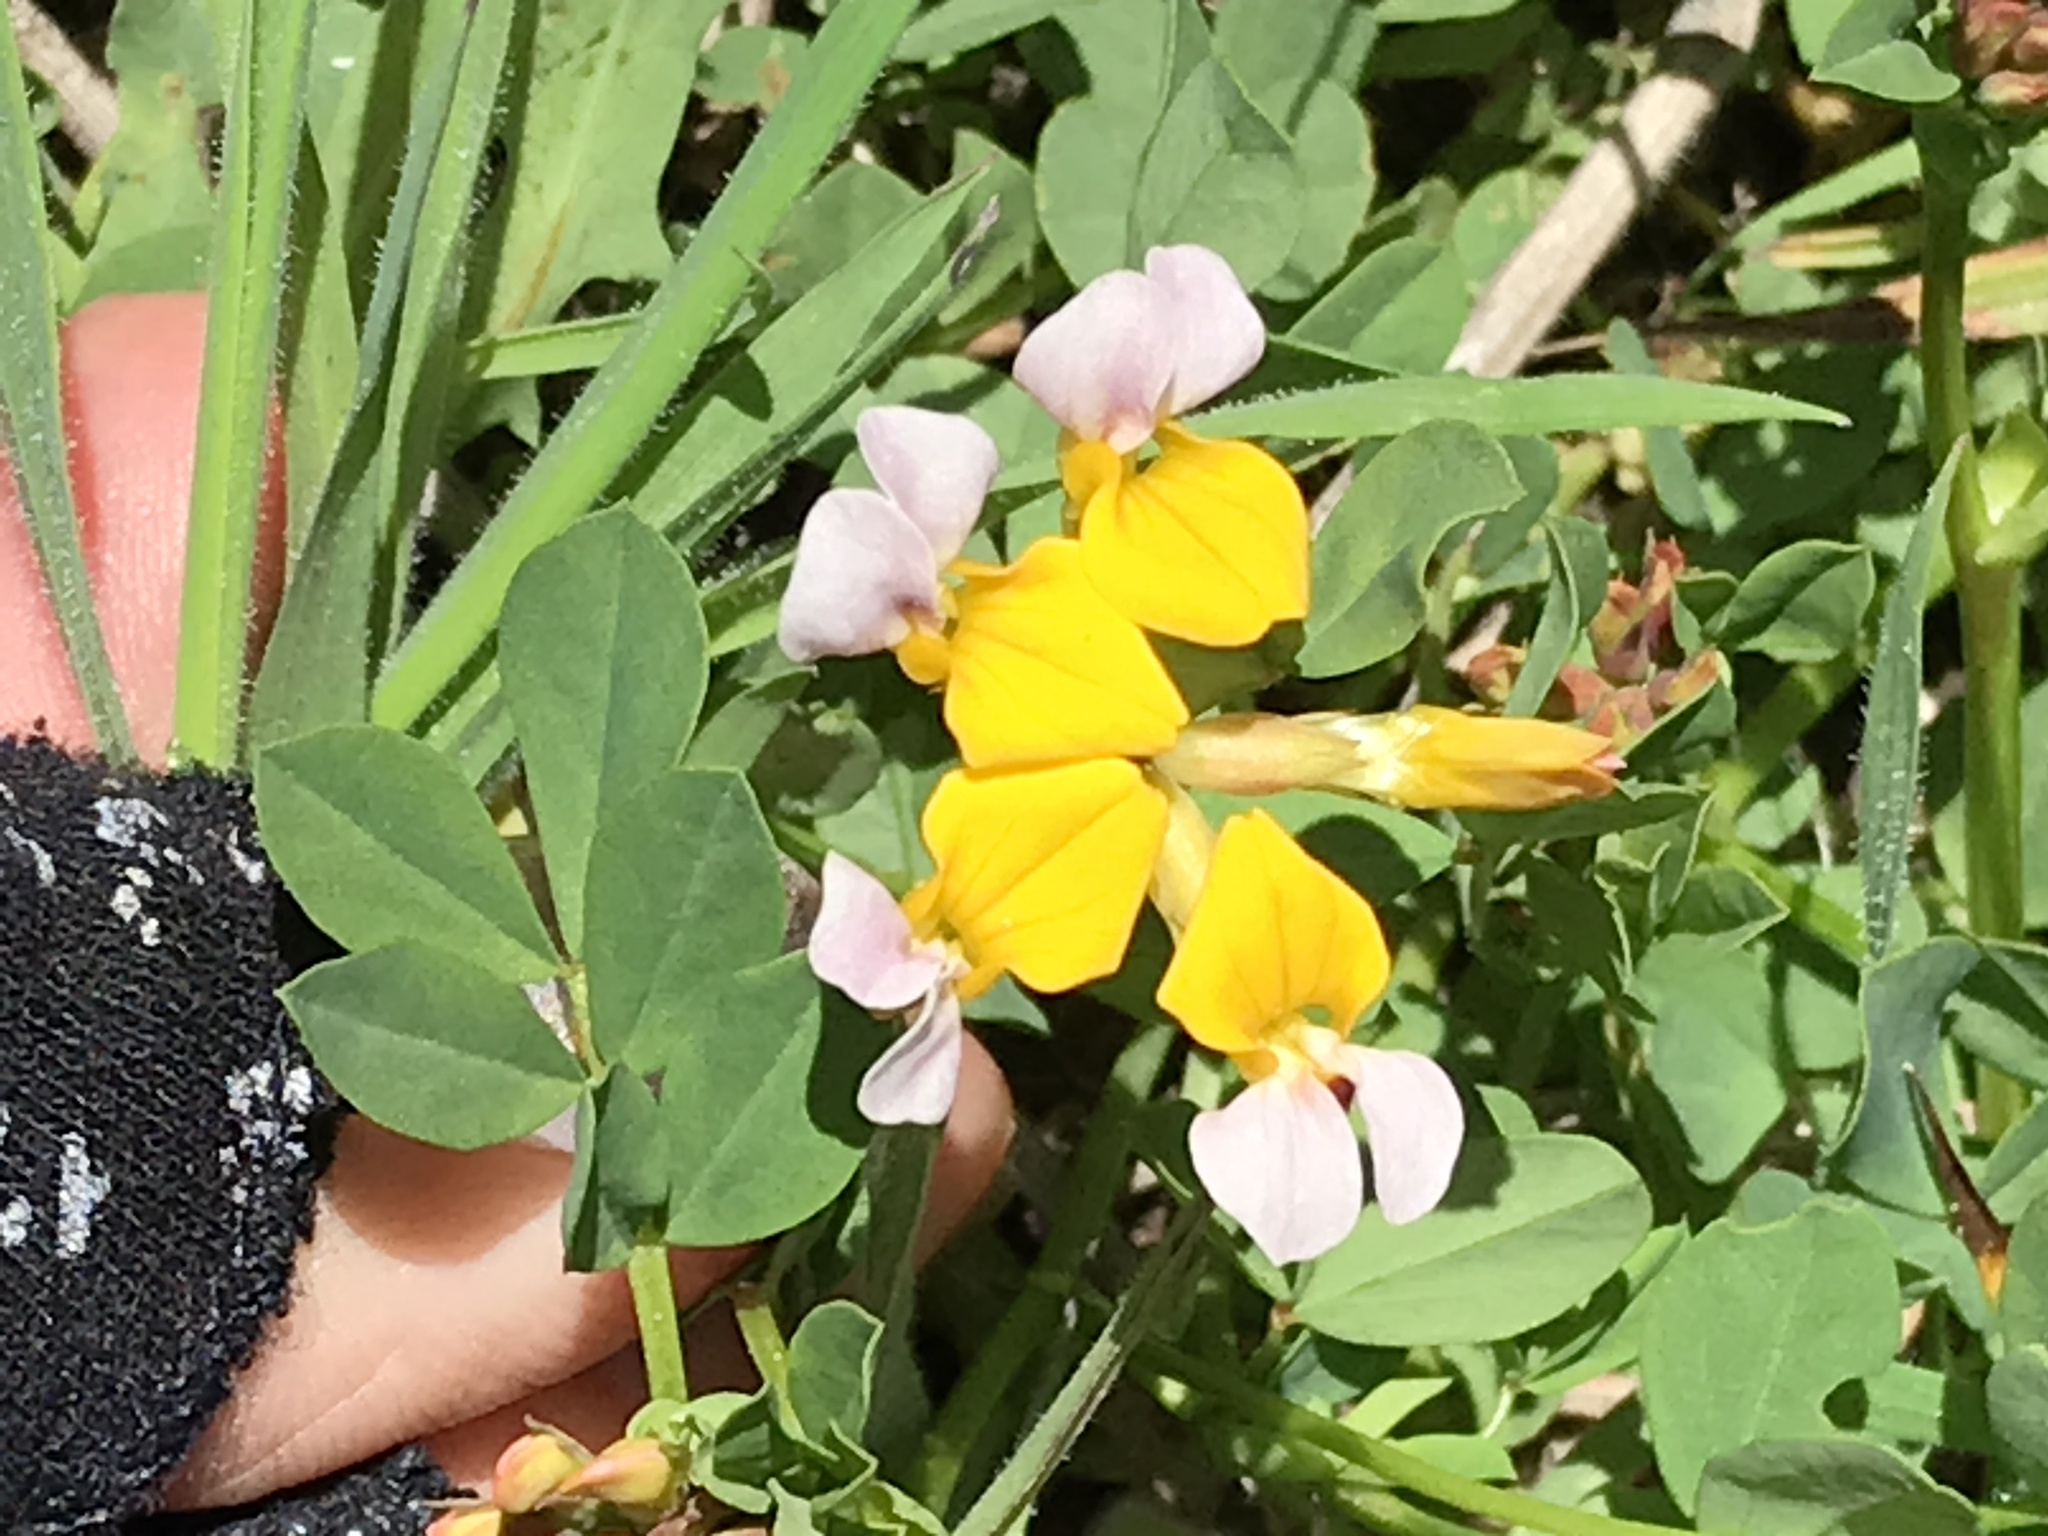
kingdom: Plantae
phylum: Tracheophyta
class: Magnoliopsida
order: Fabales
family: Fabaceae
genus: Hosackia
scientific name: Hosackia gracilis
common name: Seaside bird's-foot lotus
